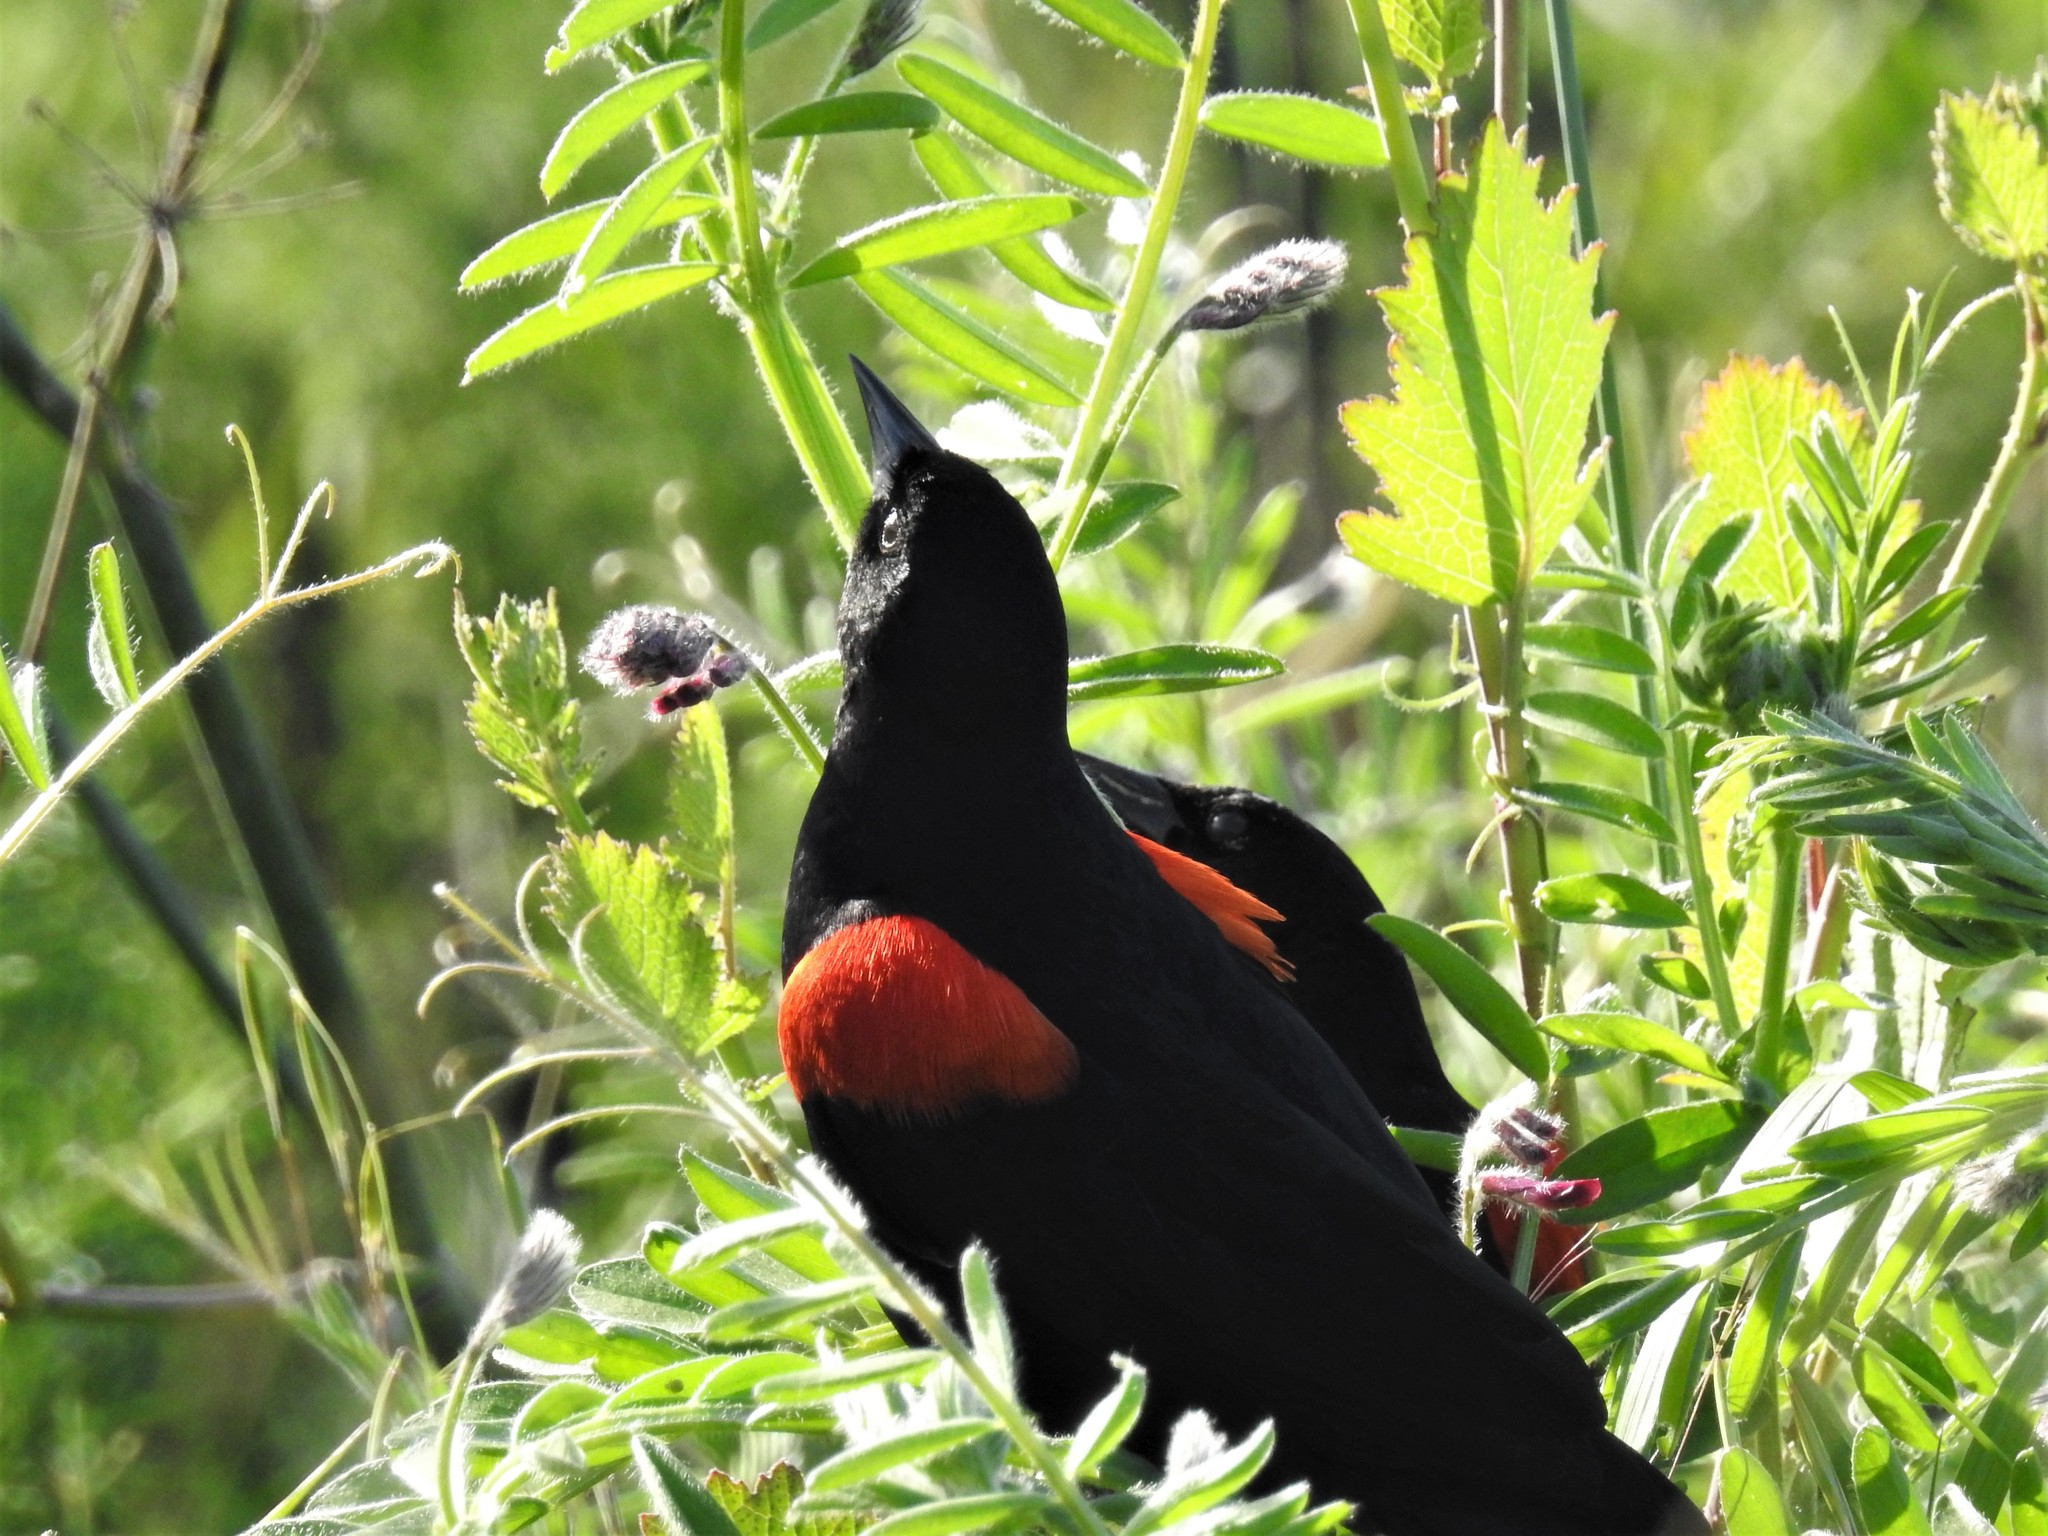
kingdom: Animalia
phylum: Chordata
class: Aves
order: Passeriformes
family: Icteridae
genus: Agelaius
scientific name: Agelaius phoeniceus
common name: Red-winged blackbird
